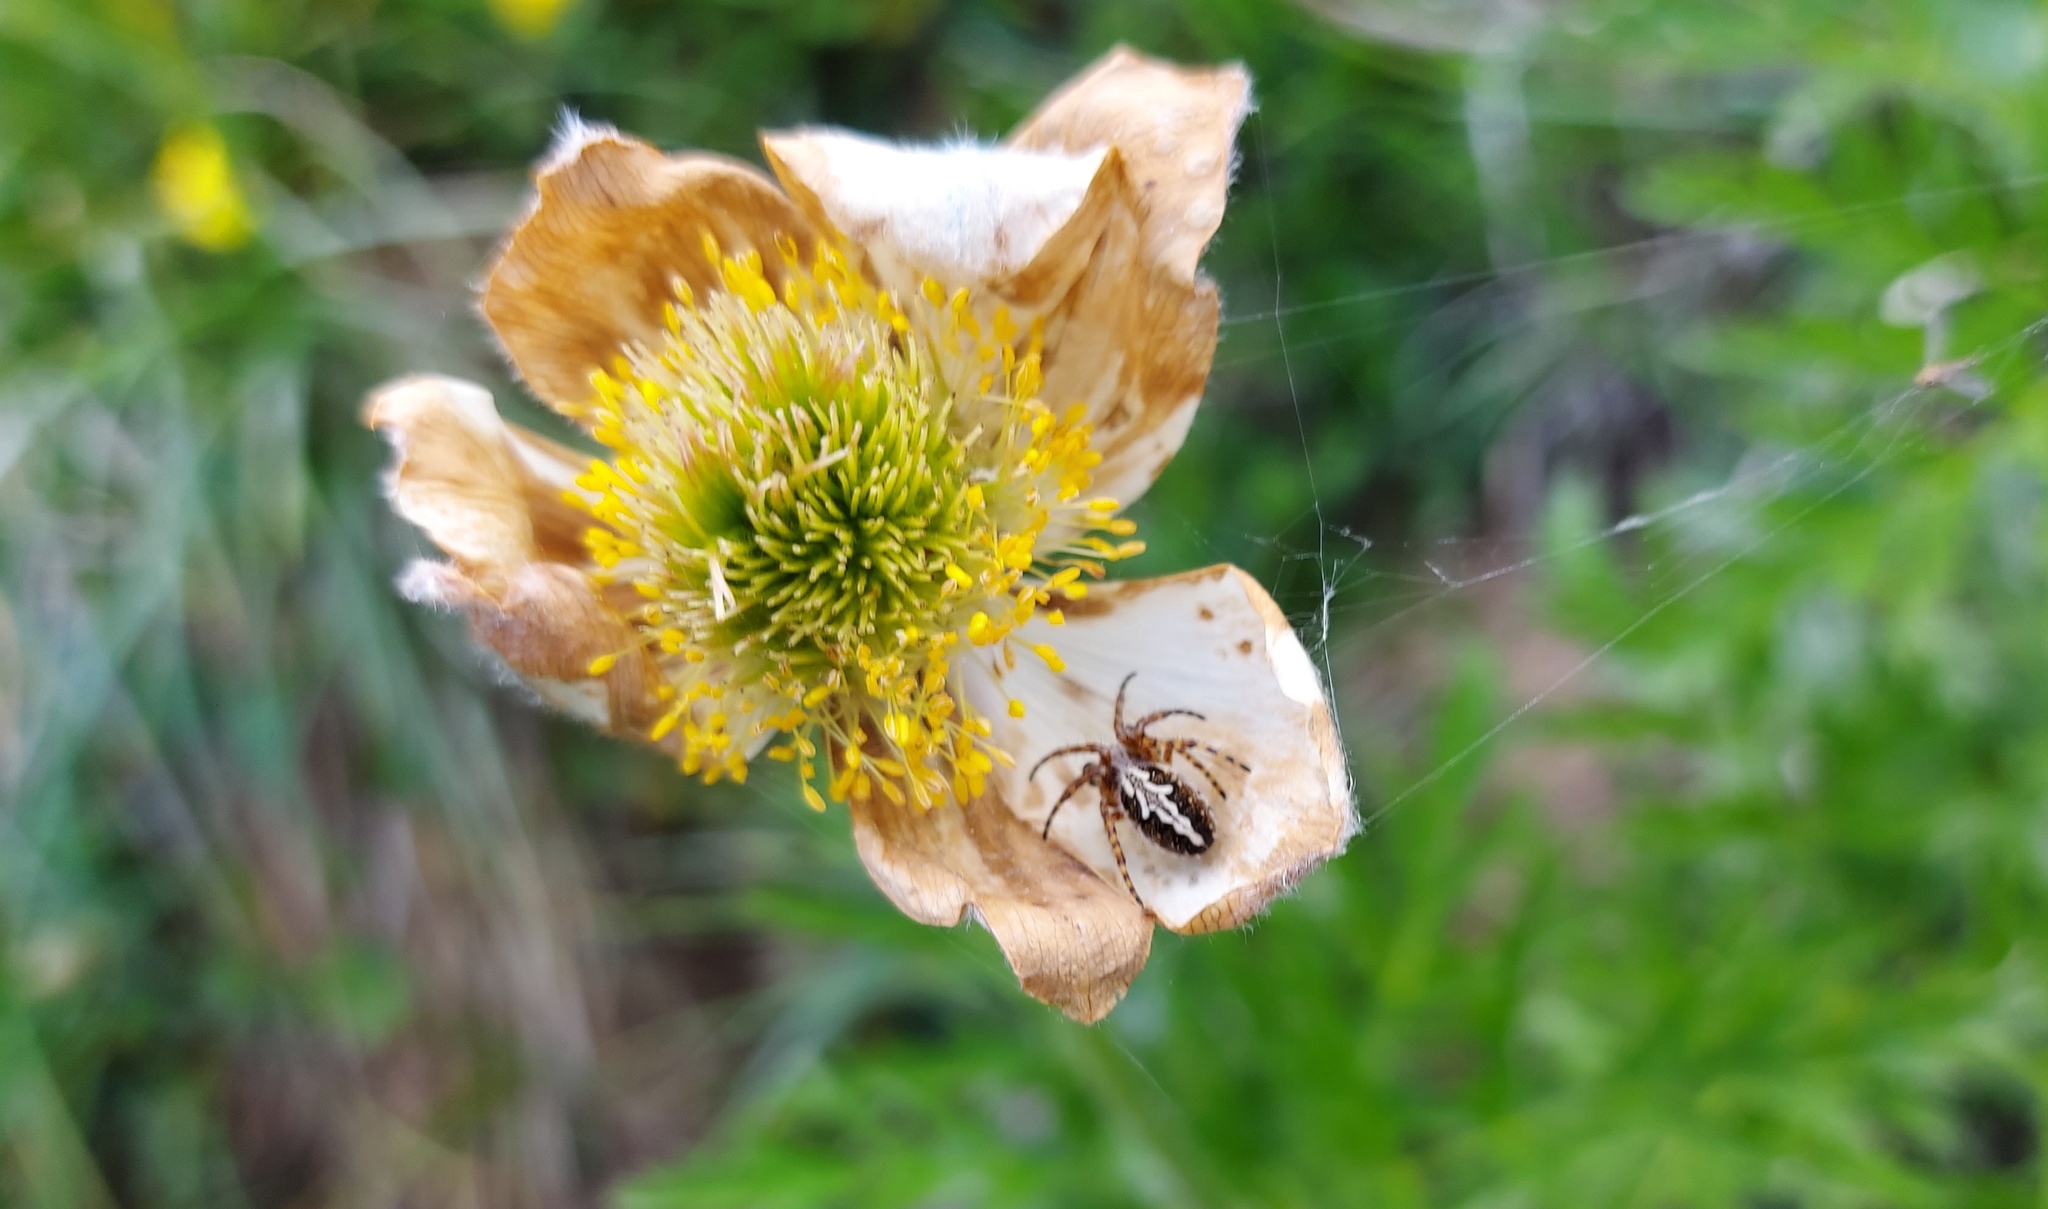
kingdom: Animalia
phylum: Arthropoda
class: Arachnida
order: Araneae
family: Araneidae
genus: Aculepeira
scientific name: Aculepeira ceropegia
